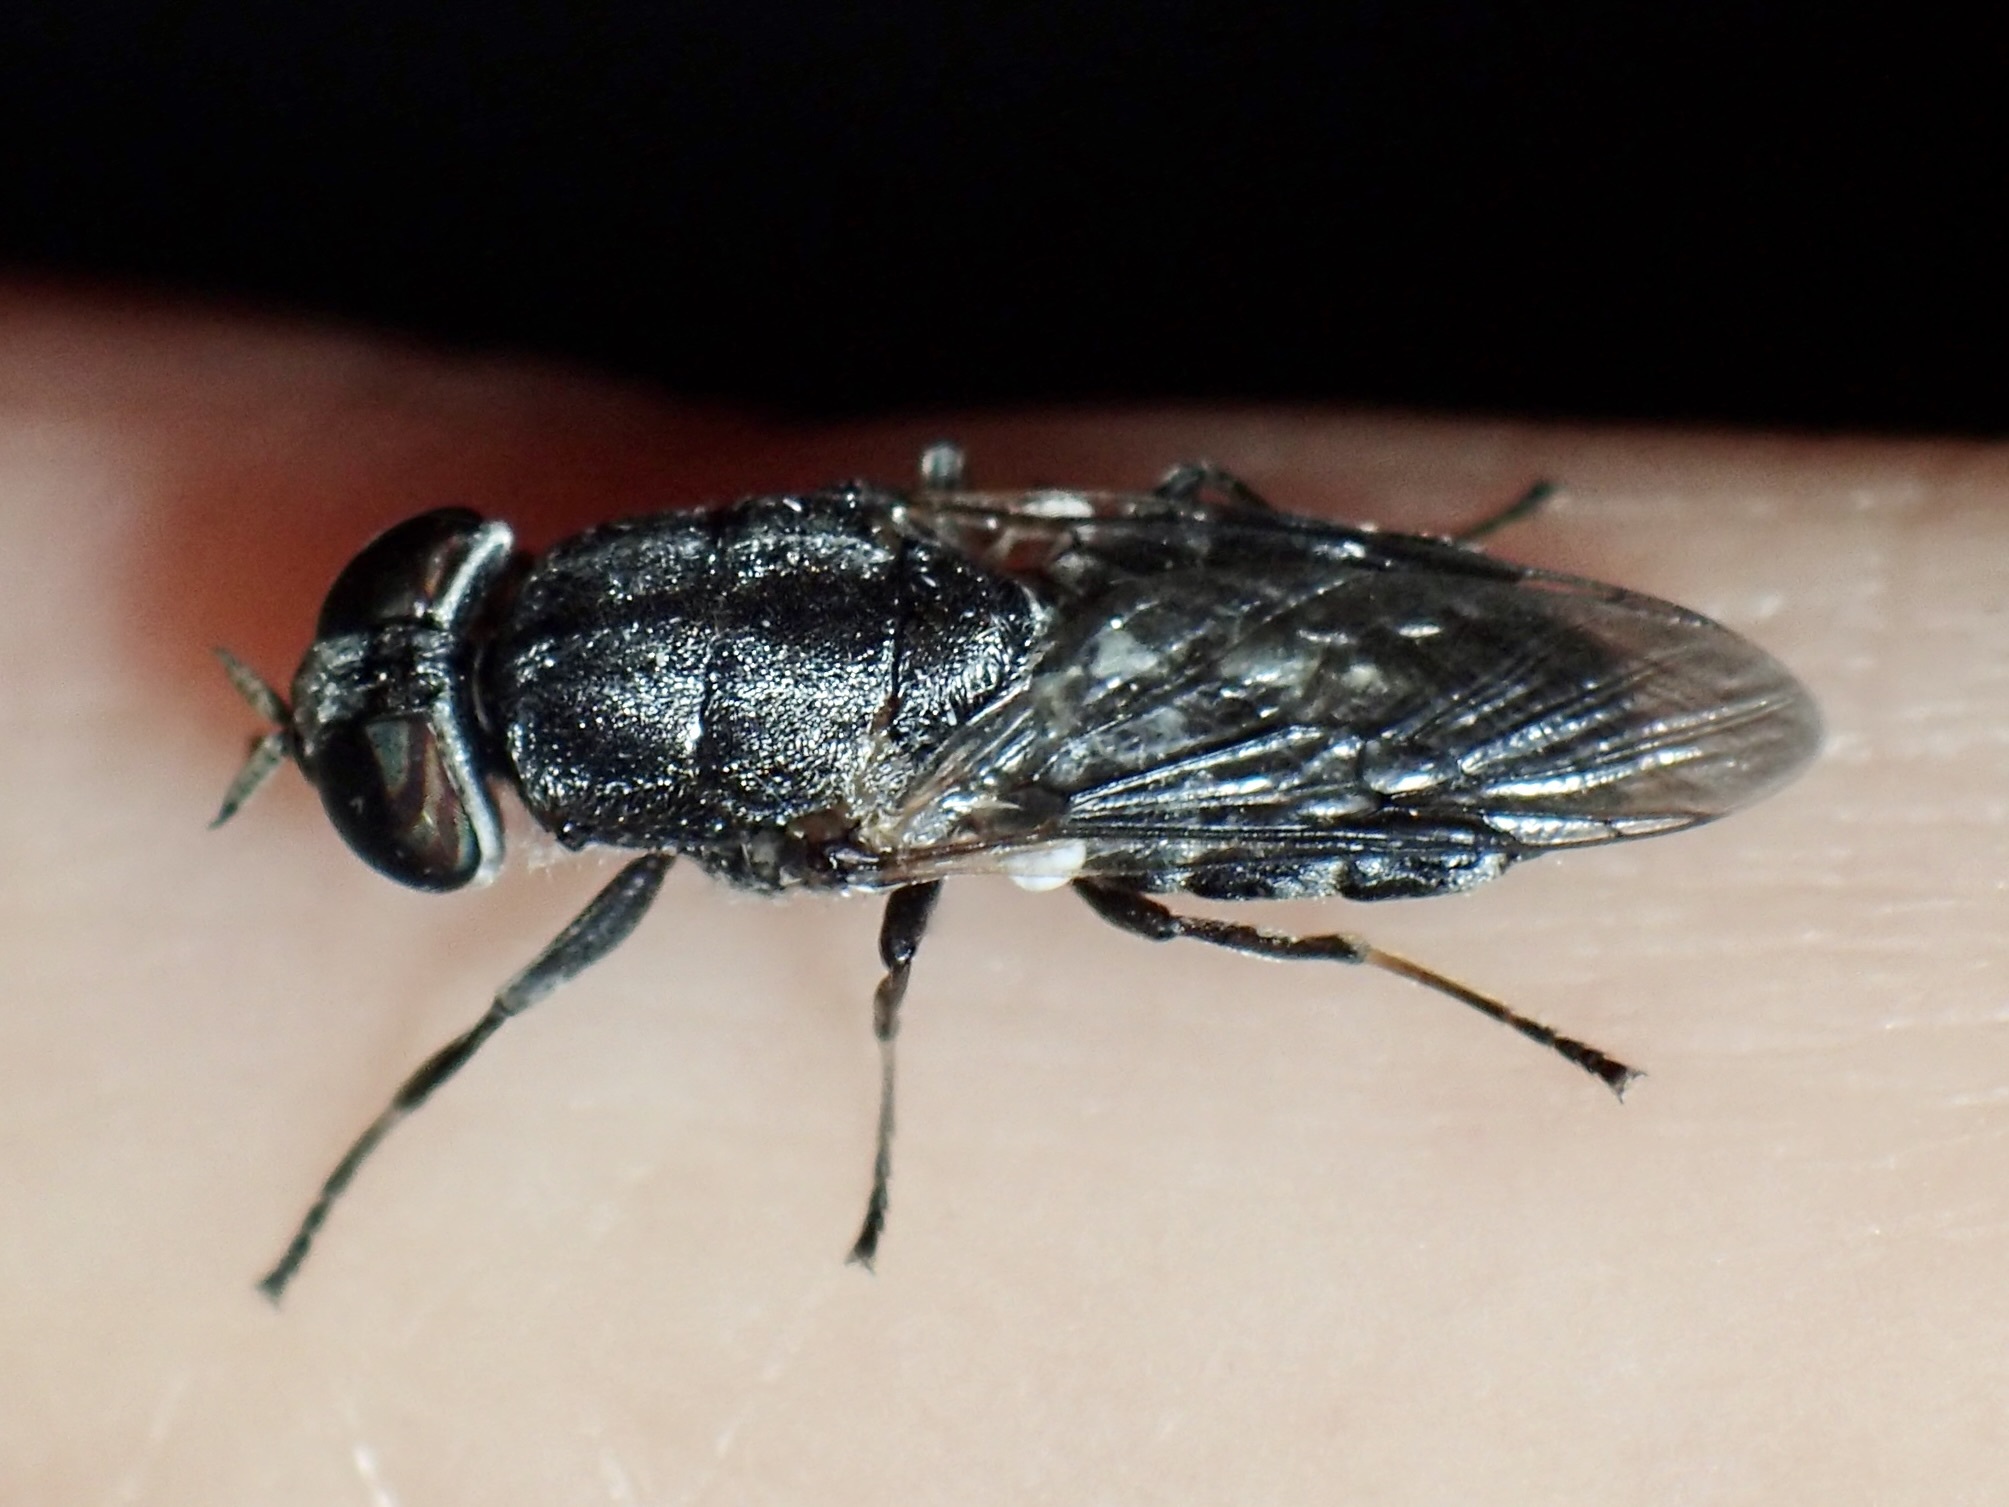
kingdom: Animalia
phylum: Arthropoda
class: Insecta
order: Diptera
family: Stratiomyidae
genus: Dieuryneura
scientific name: Dieuryneura stigma
